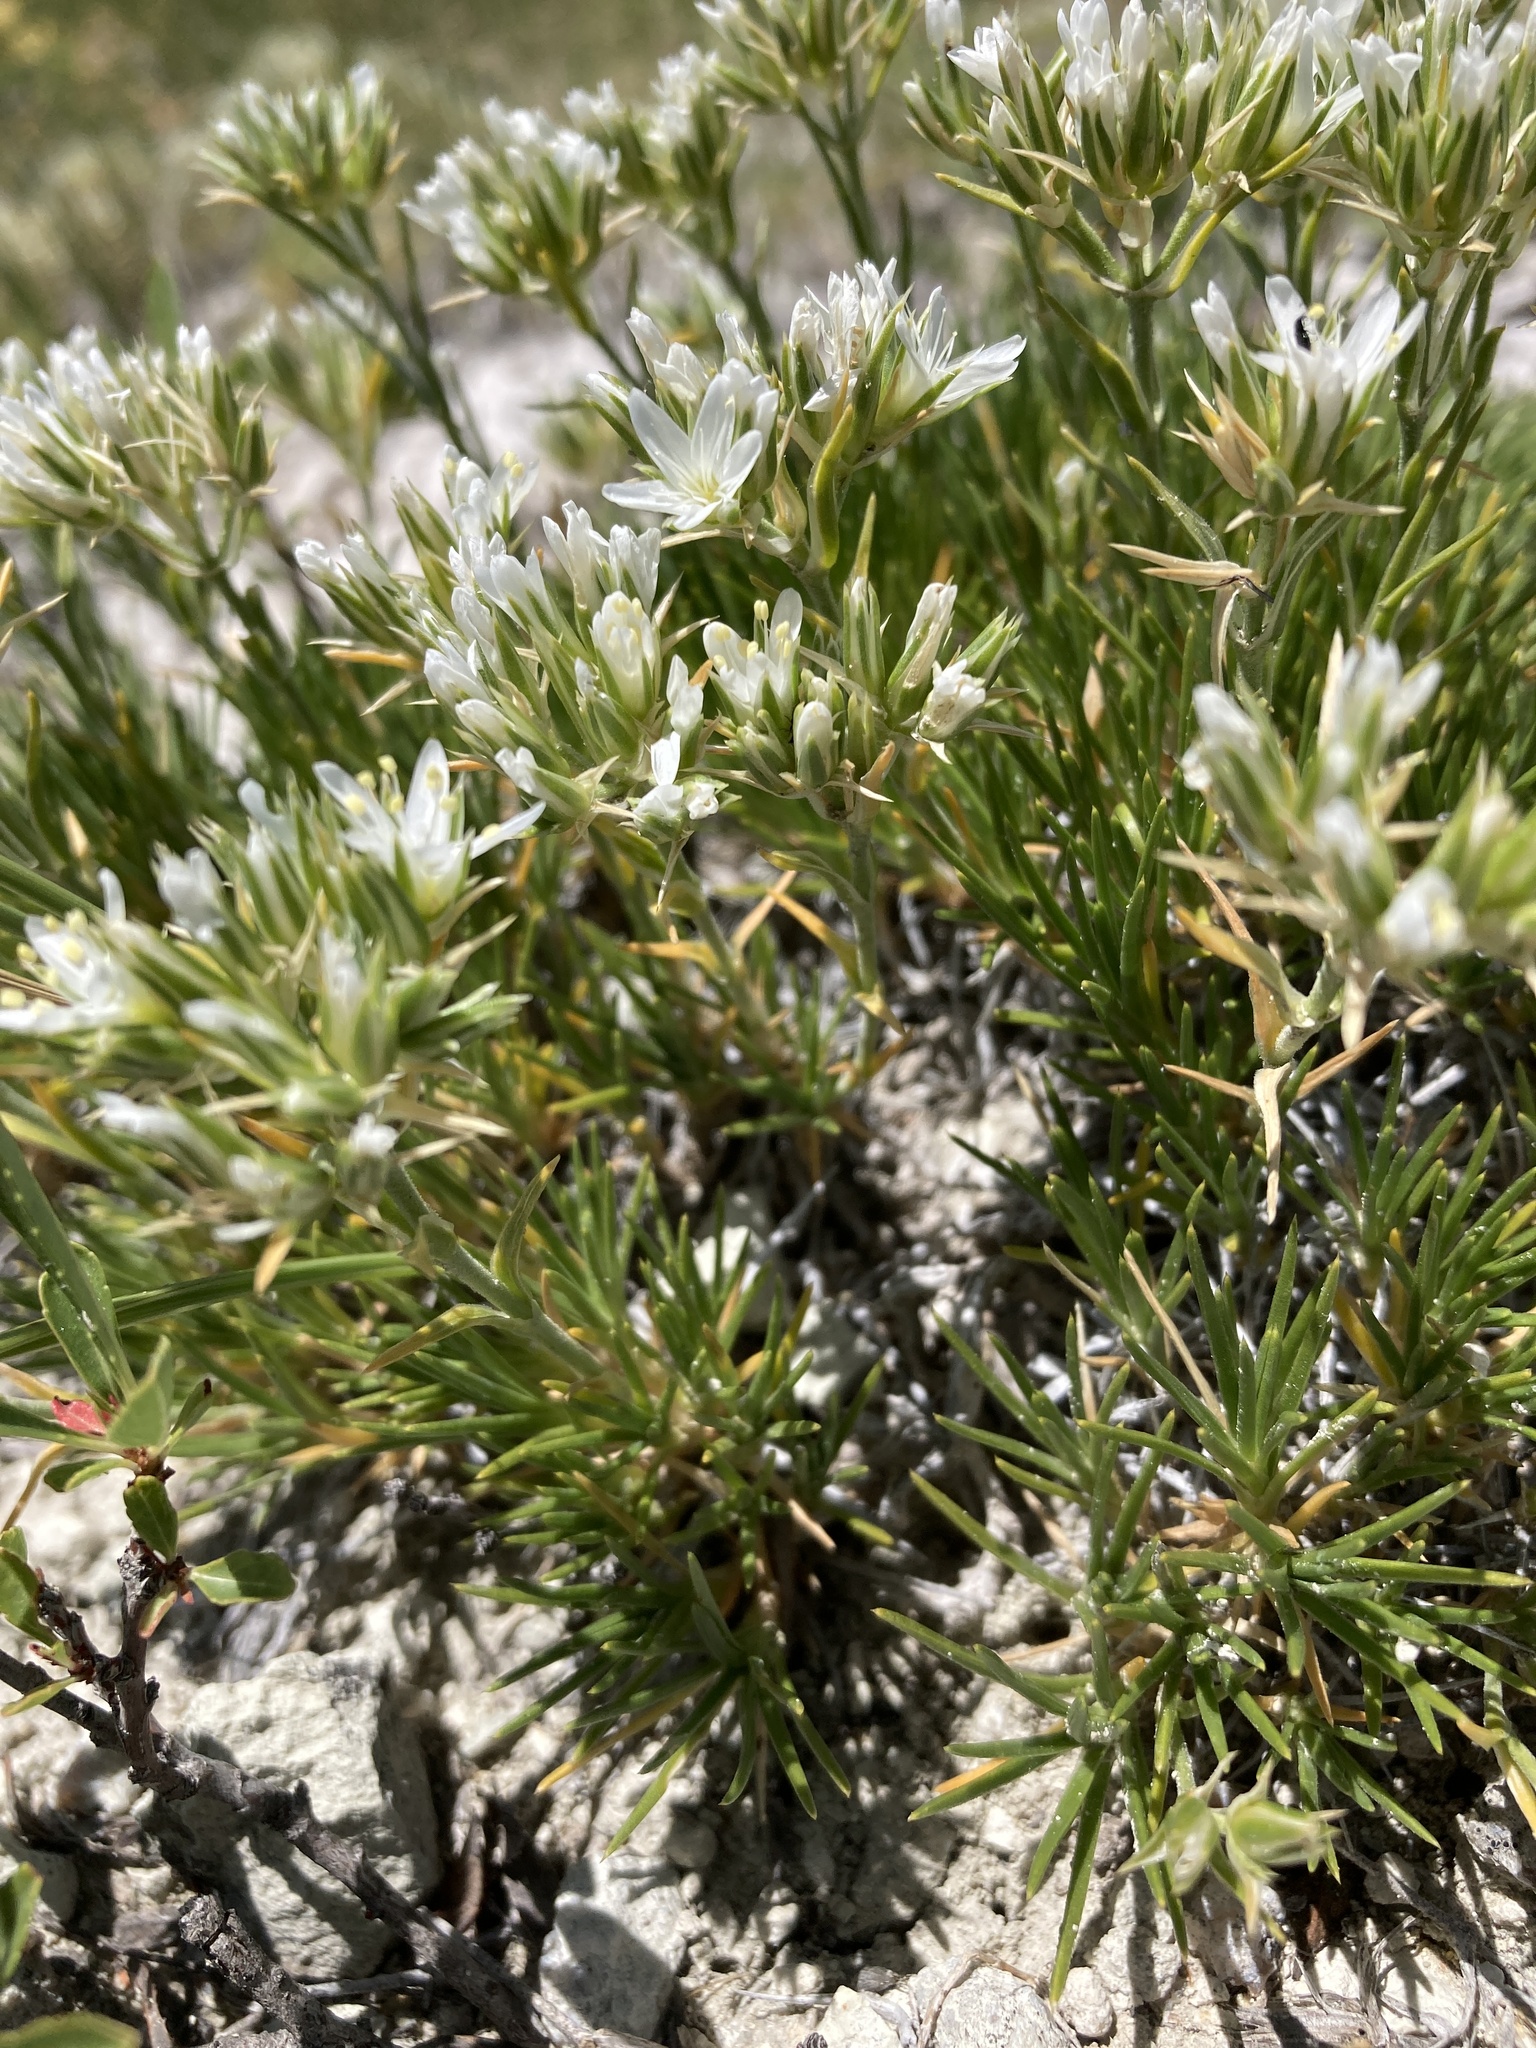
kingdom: Plantae
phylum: Tracheophyta
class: Magnoliopsida
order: Caryophyllales
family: Caryophyllaceae
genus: Eremogone
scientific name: Eremogone hookeri
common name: Hooker's sandwort
